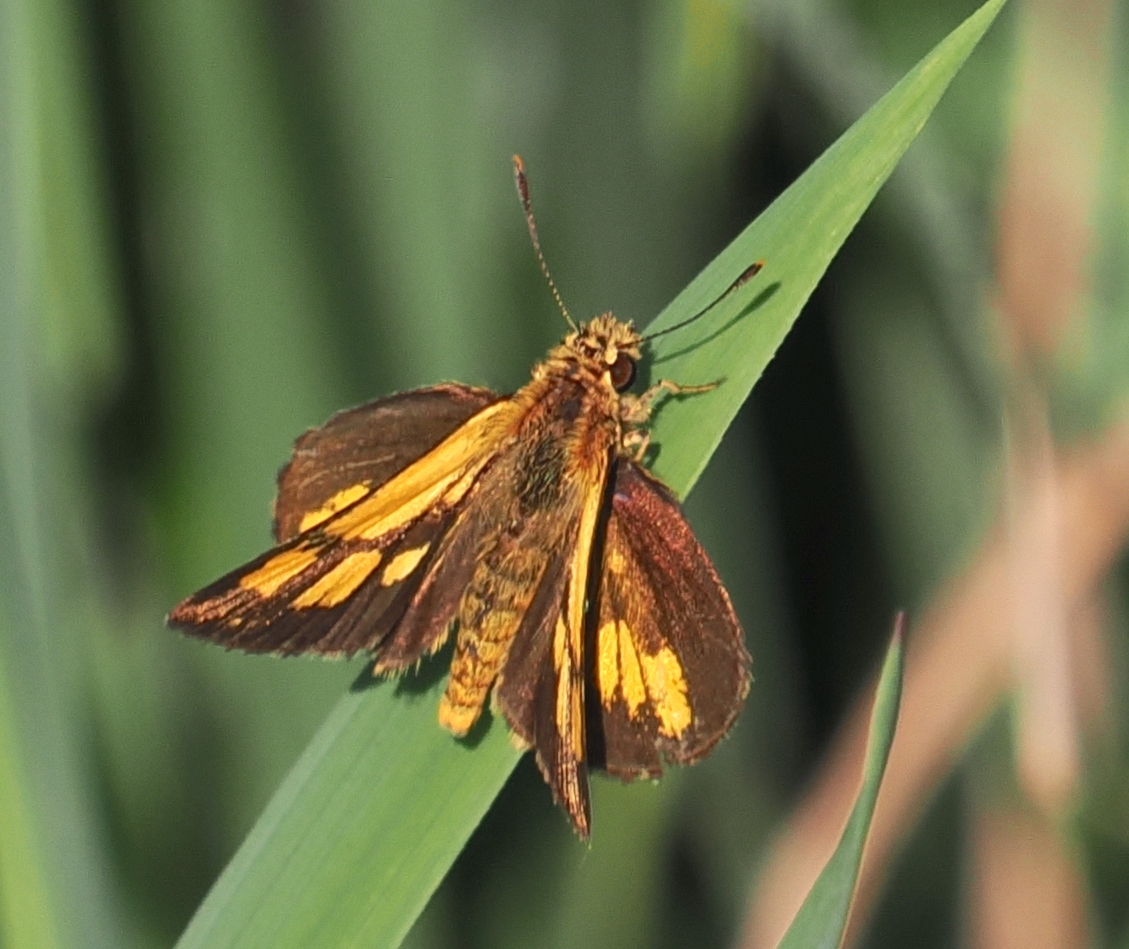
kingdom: Animalia
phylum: Arthropoda
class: Insecta
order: Lepidoptera
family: Hesperiidae
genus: Ampittia
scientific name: Ampittia dioscorides
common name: Common bush hopper
